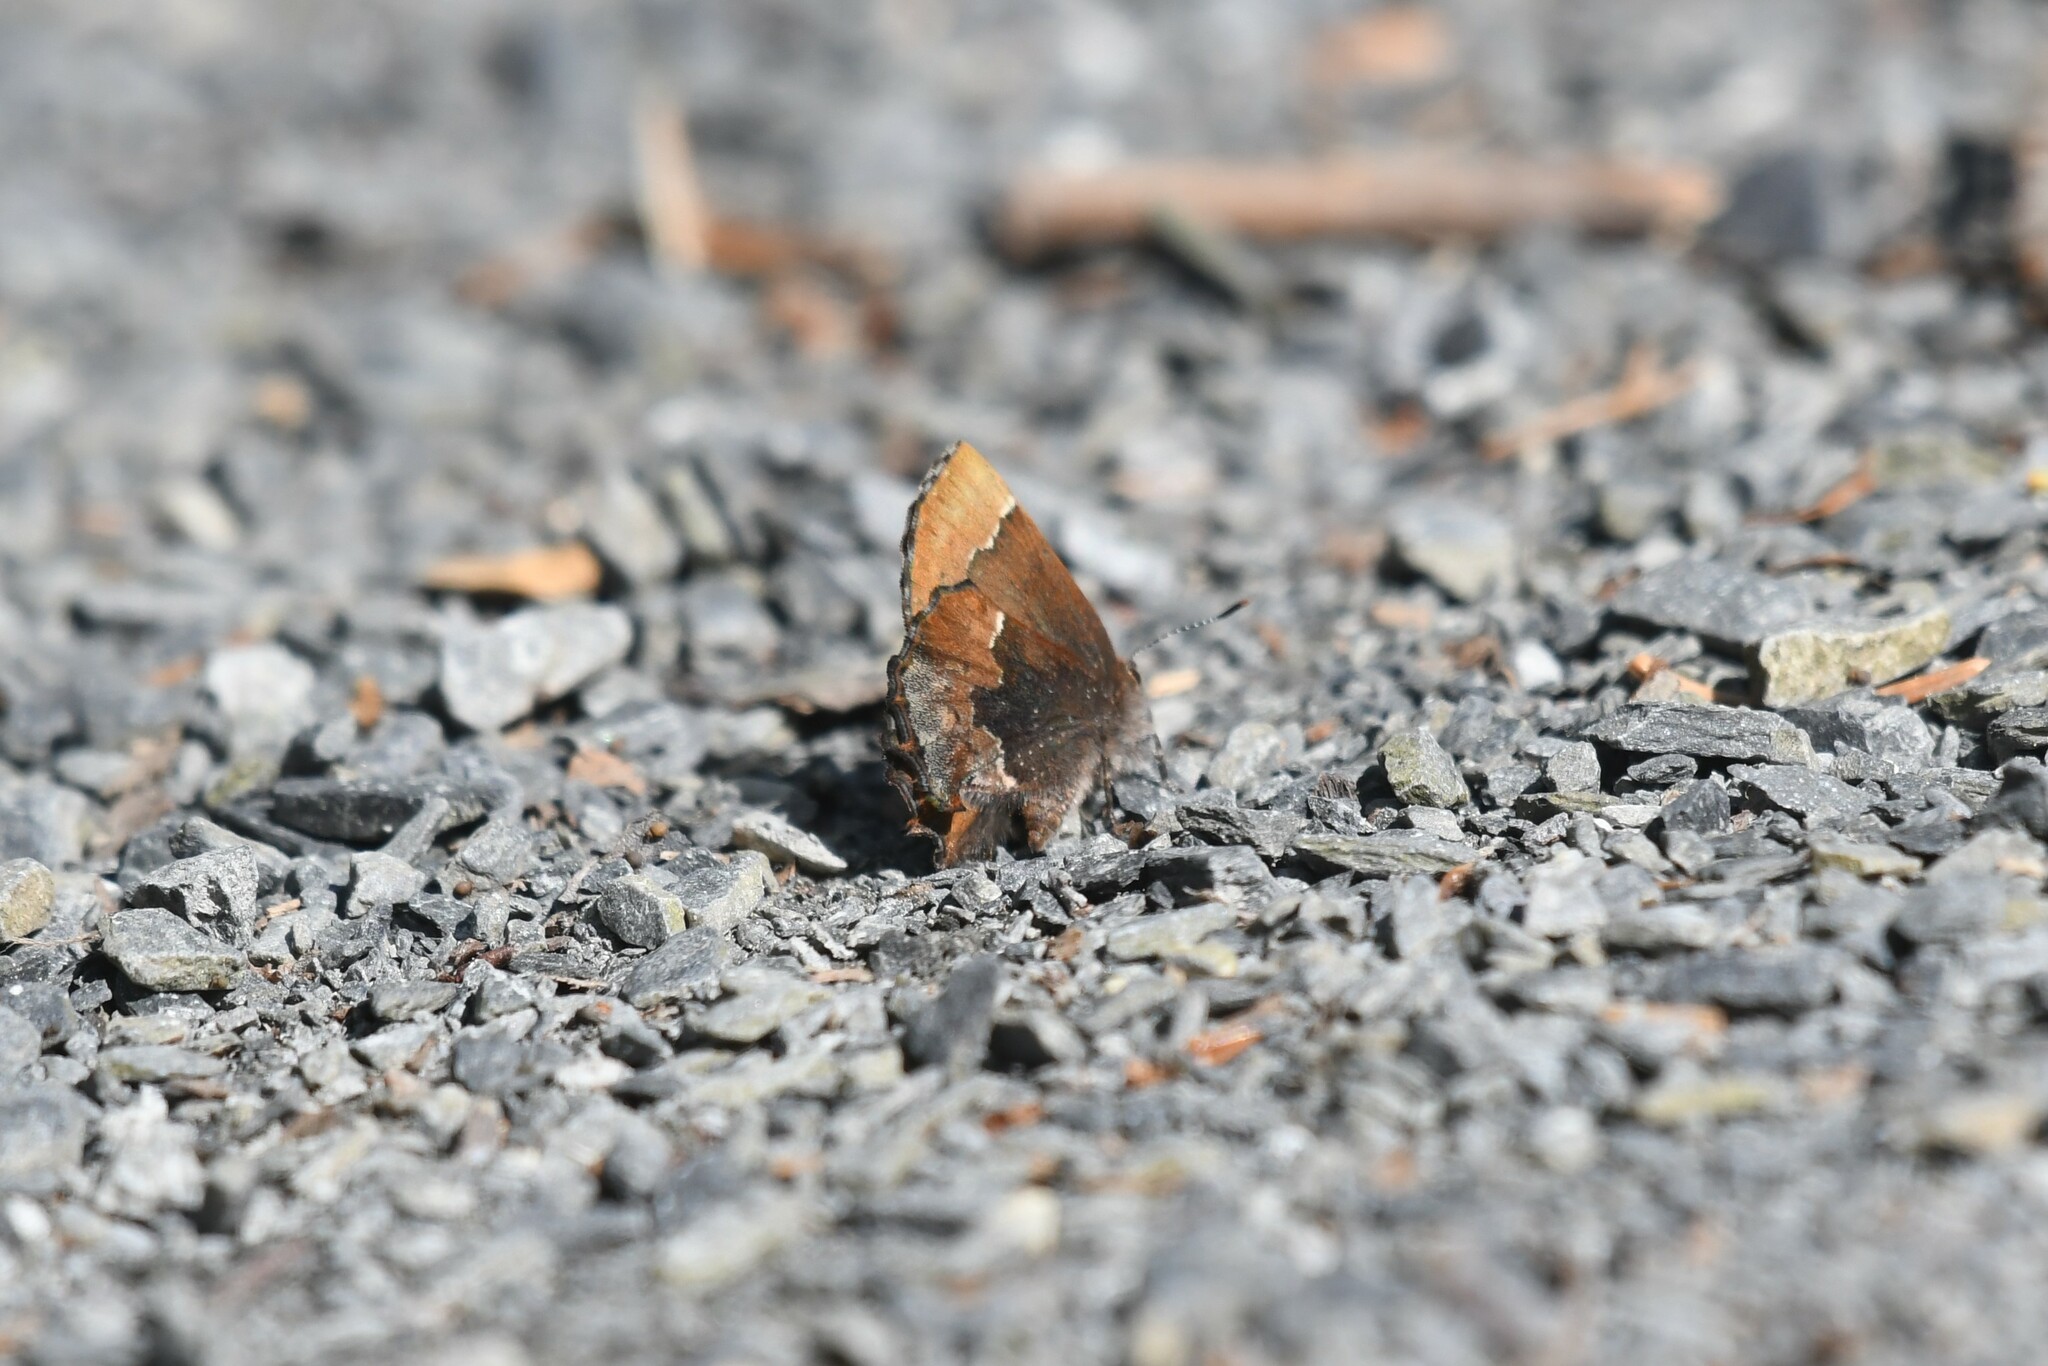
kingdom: Animalia
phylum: Arthropoda
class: Insecta
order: Lepidoptera
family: Lycaenidae
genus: Incisalia
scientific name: Incisalia henrici
